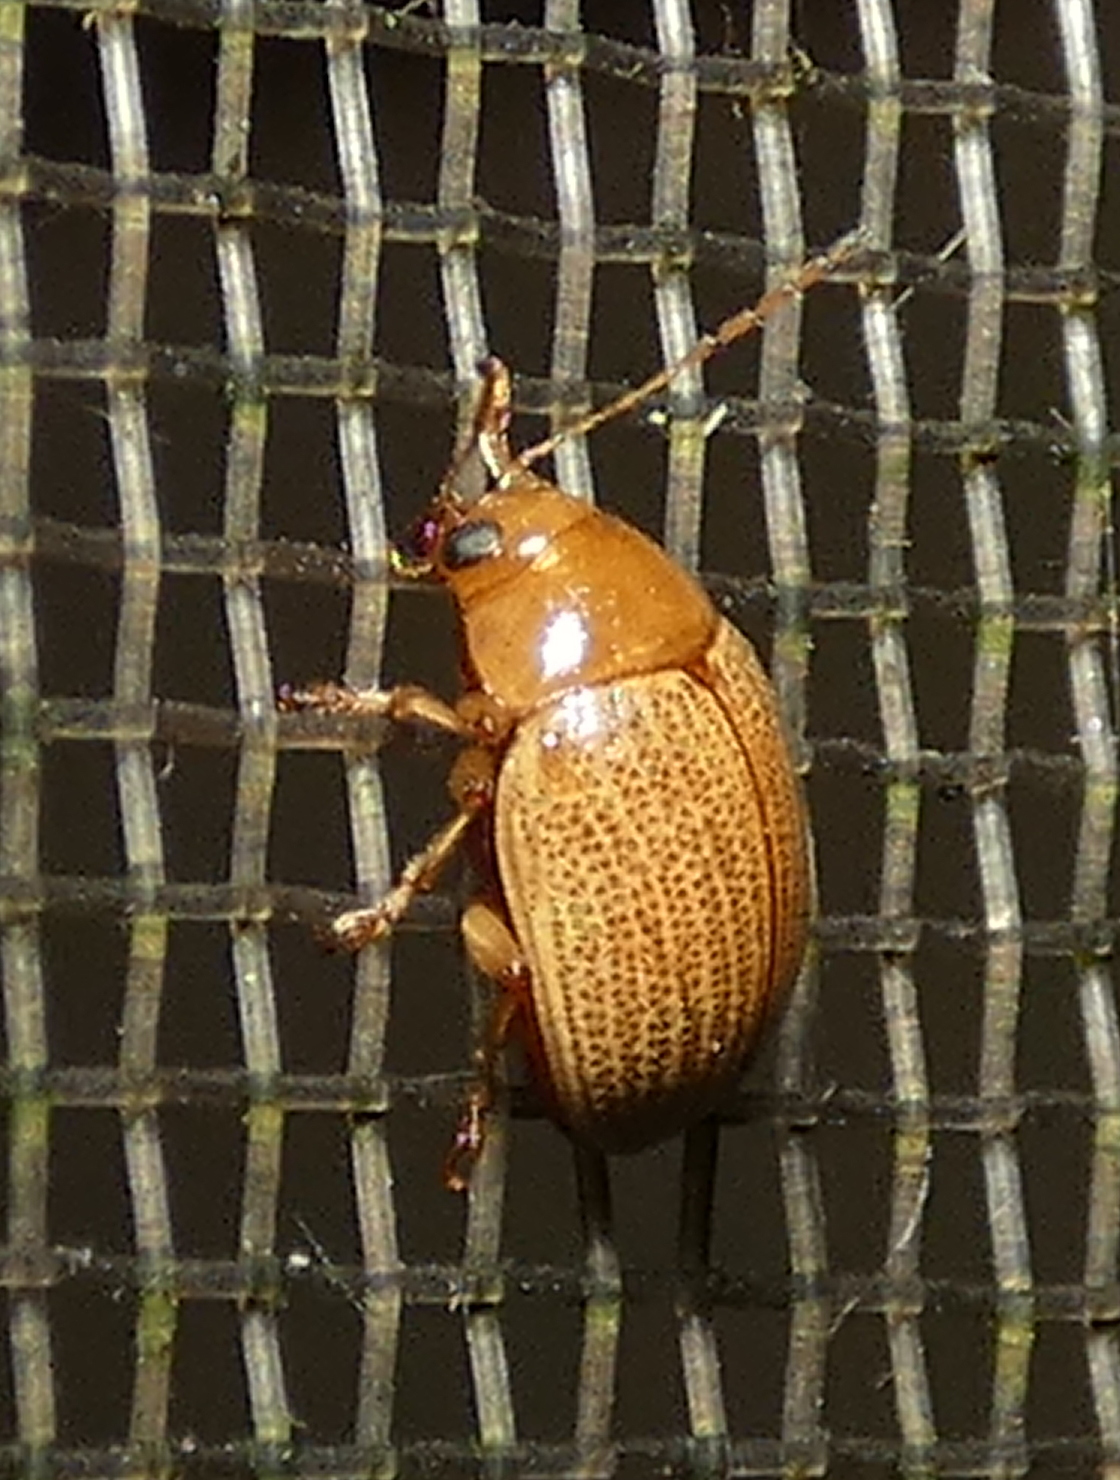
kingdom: Animalia
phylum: Arthropoda
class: Insecta
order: Coleoptera
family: Chrysomelidae
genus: Anisodera
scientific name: Anisodera ferruginea
